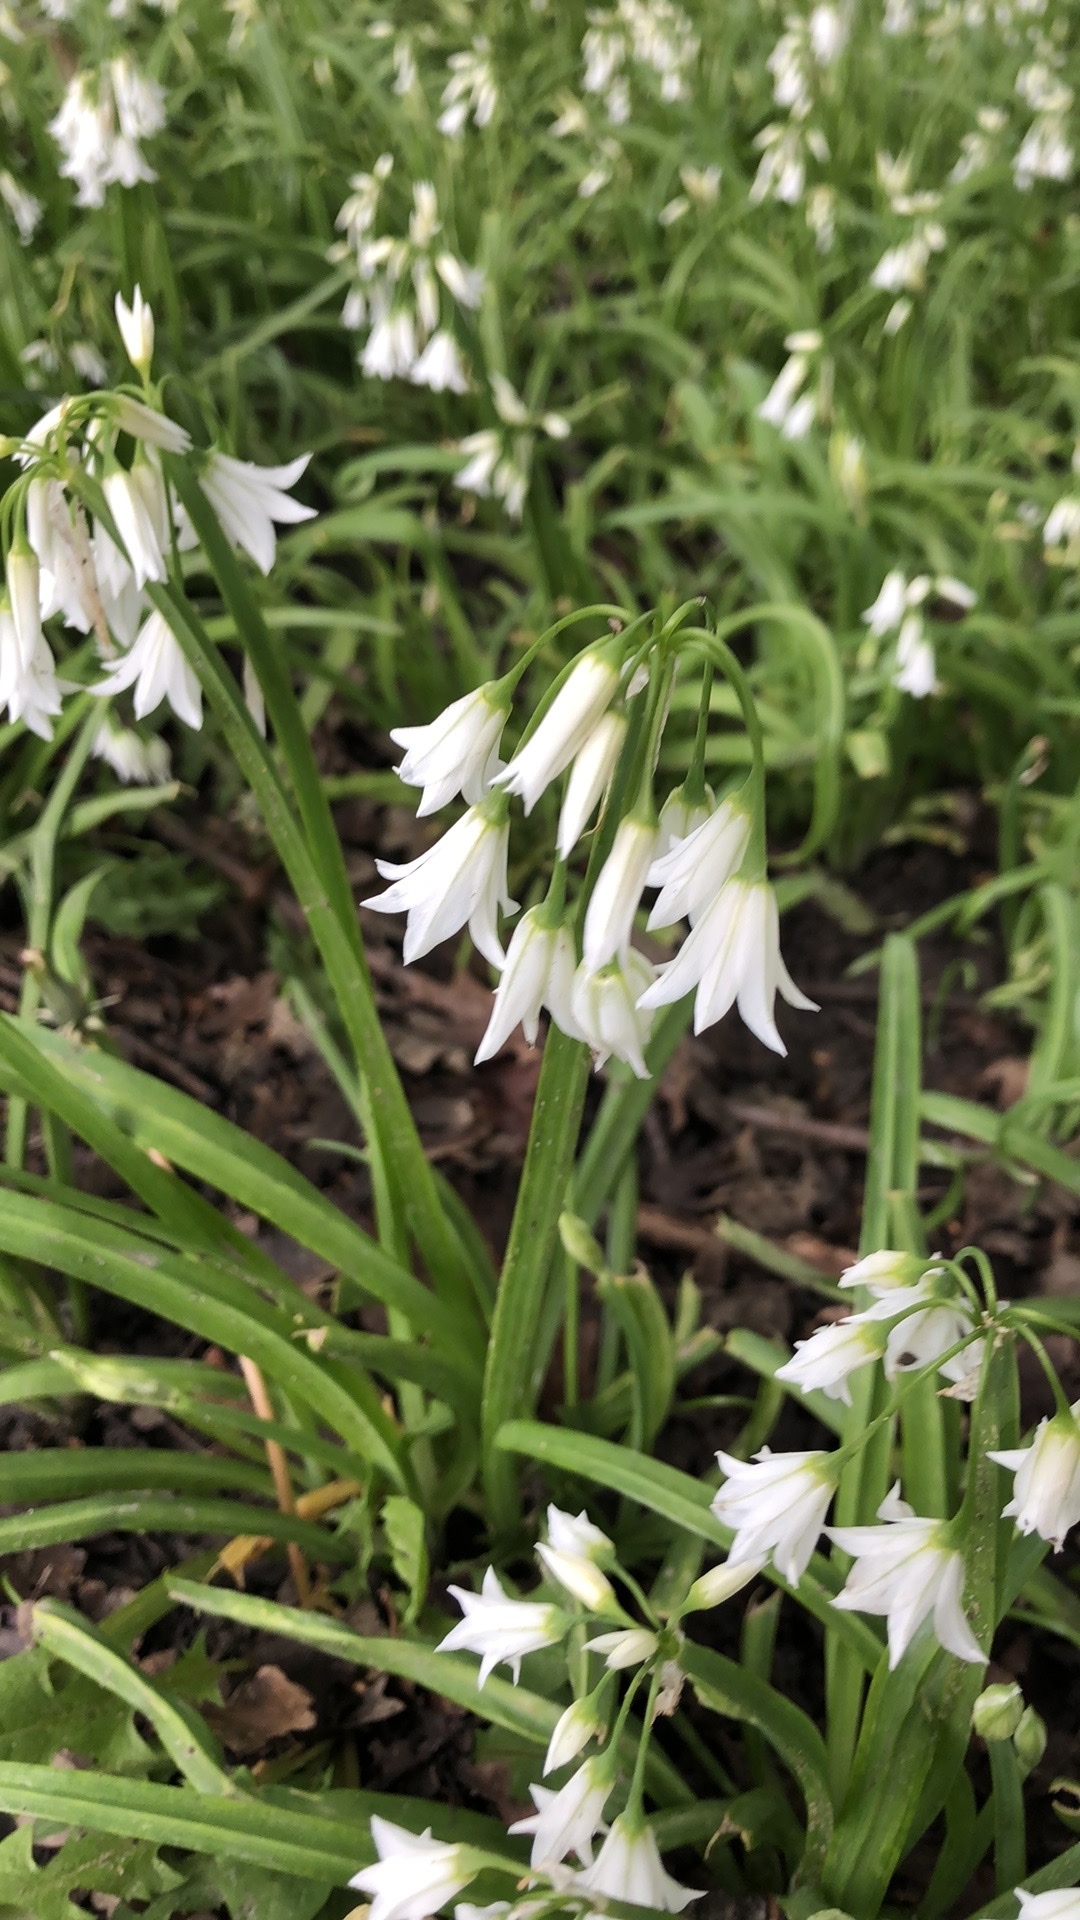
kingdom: Plantae
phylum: Tracheophyta
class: Liliopsida
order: Asparagales
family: Amaryllidaceae
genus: Allium
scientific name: Allium triquetrum
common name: Three-cornered garlic
